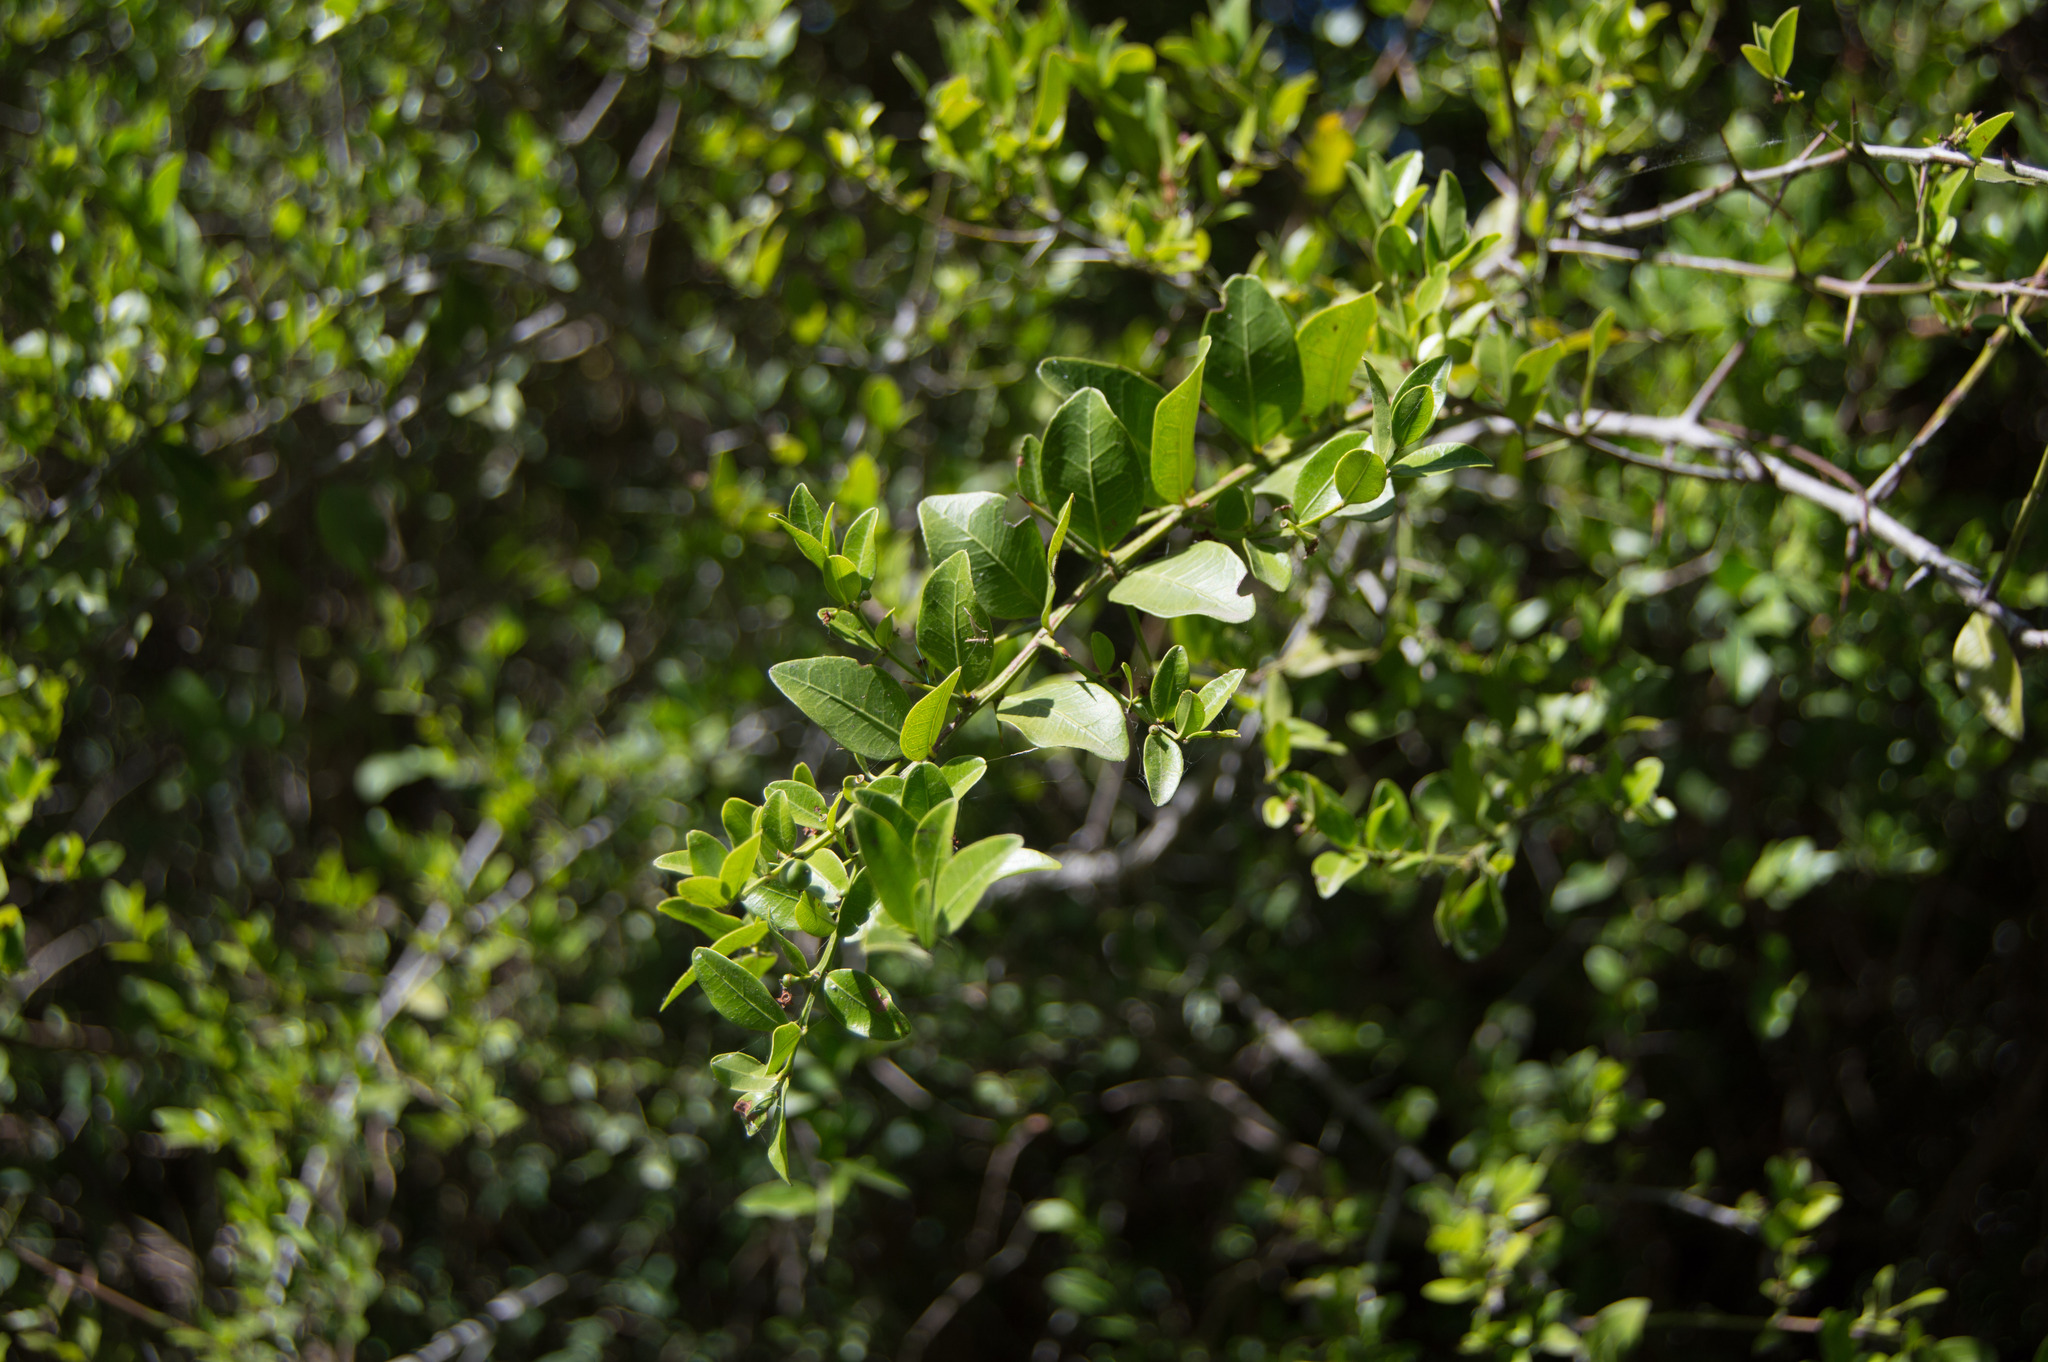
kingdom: Plantae
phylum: Tracheophyta
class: Magnoliopsida
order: Rosales
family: Rhamnaceae
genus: Scutia
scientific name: Scutia buxifolia
